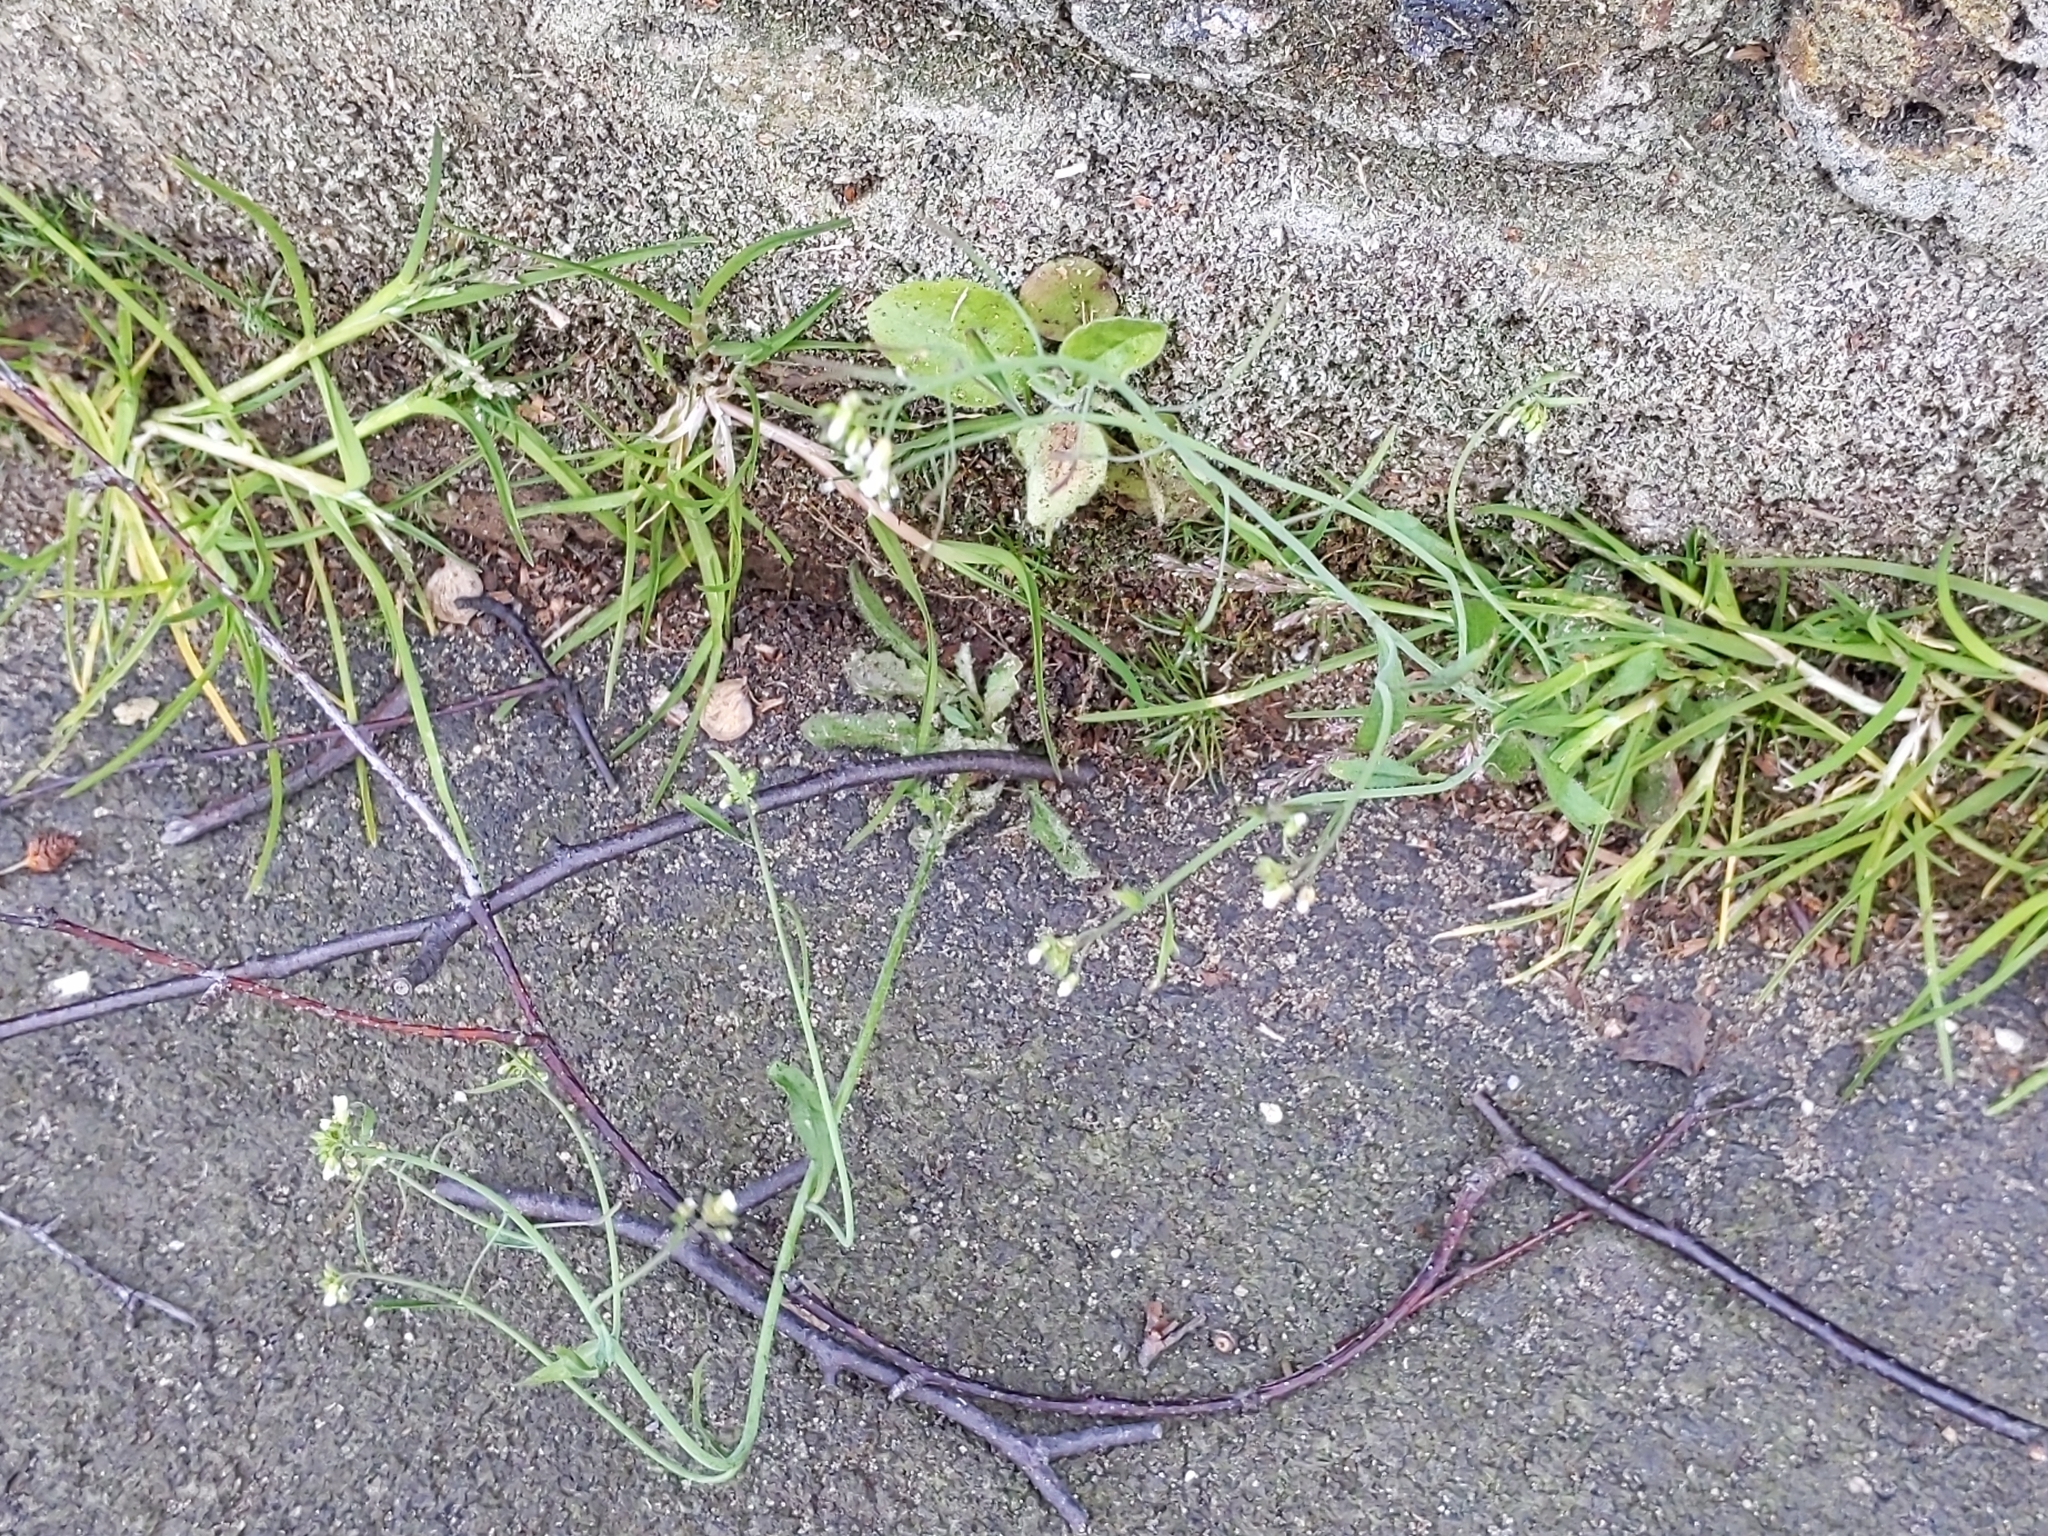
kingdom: Plantae
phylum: Tracheophyta
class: Magnoliopsida
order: Brassicales
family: Brassicaceae
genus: Arabidopsis
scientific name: Arabidopsis thaliana
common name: Thale cress
